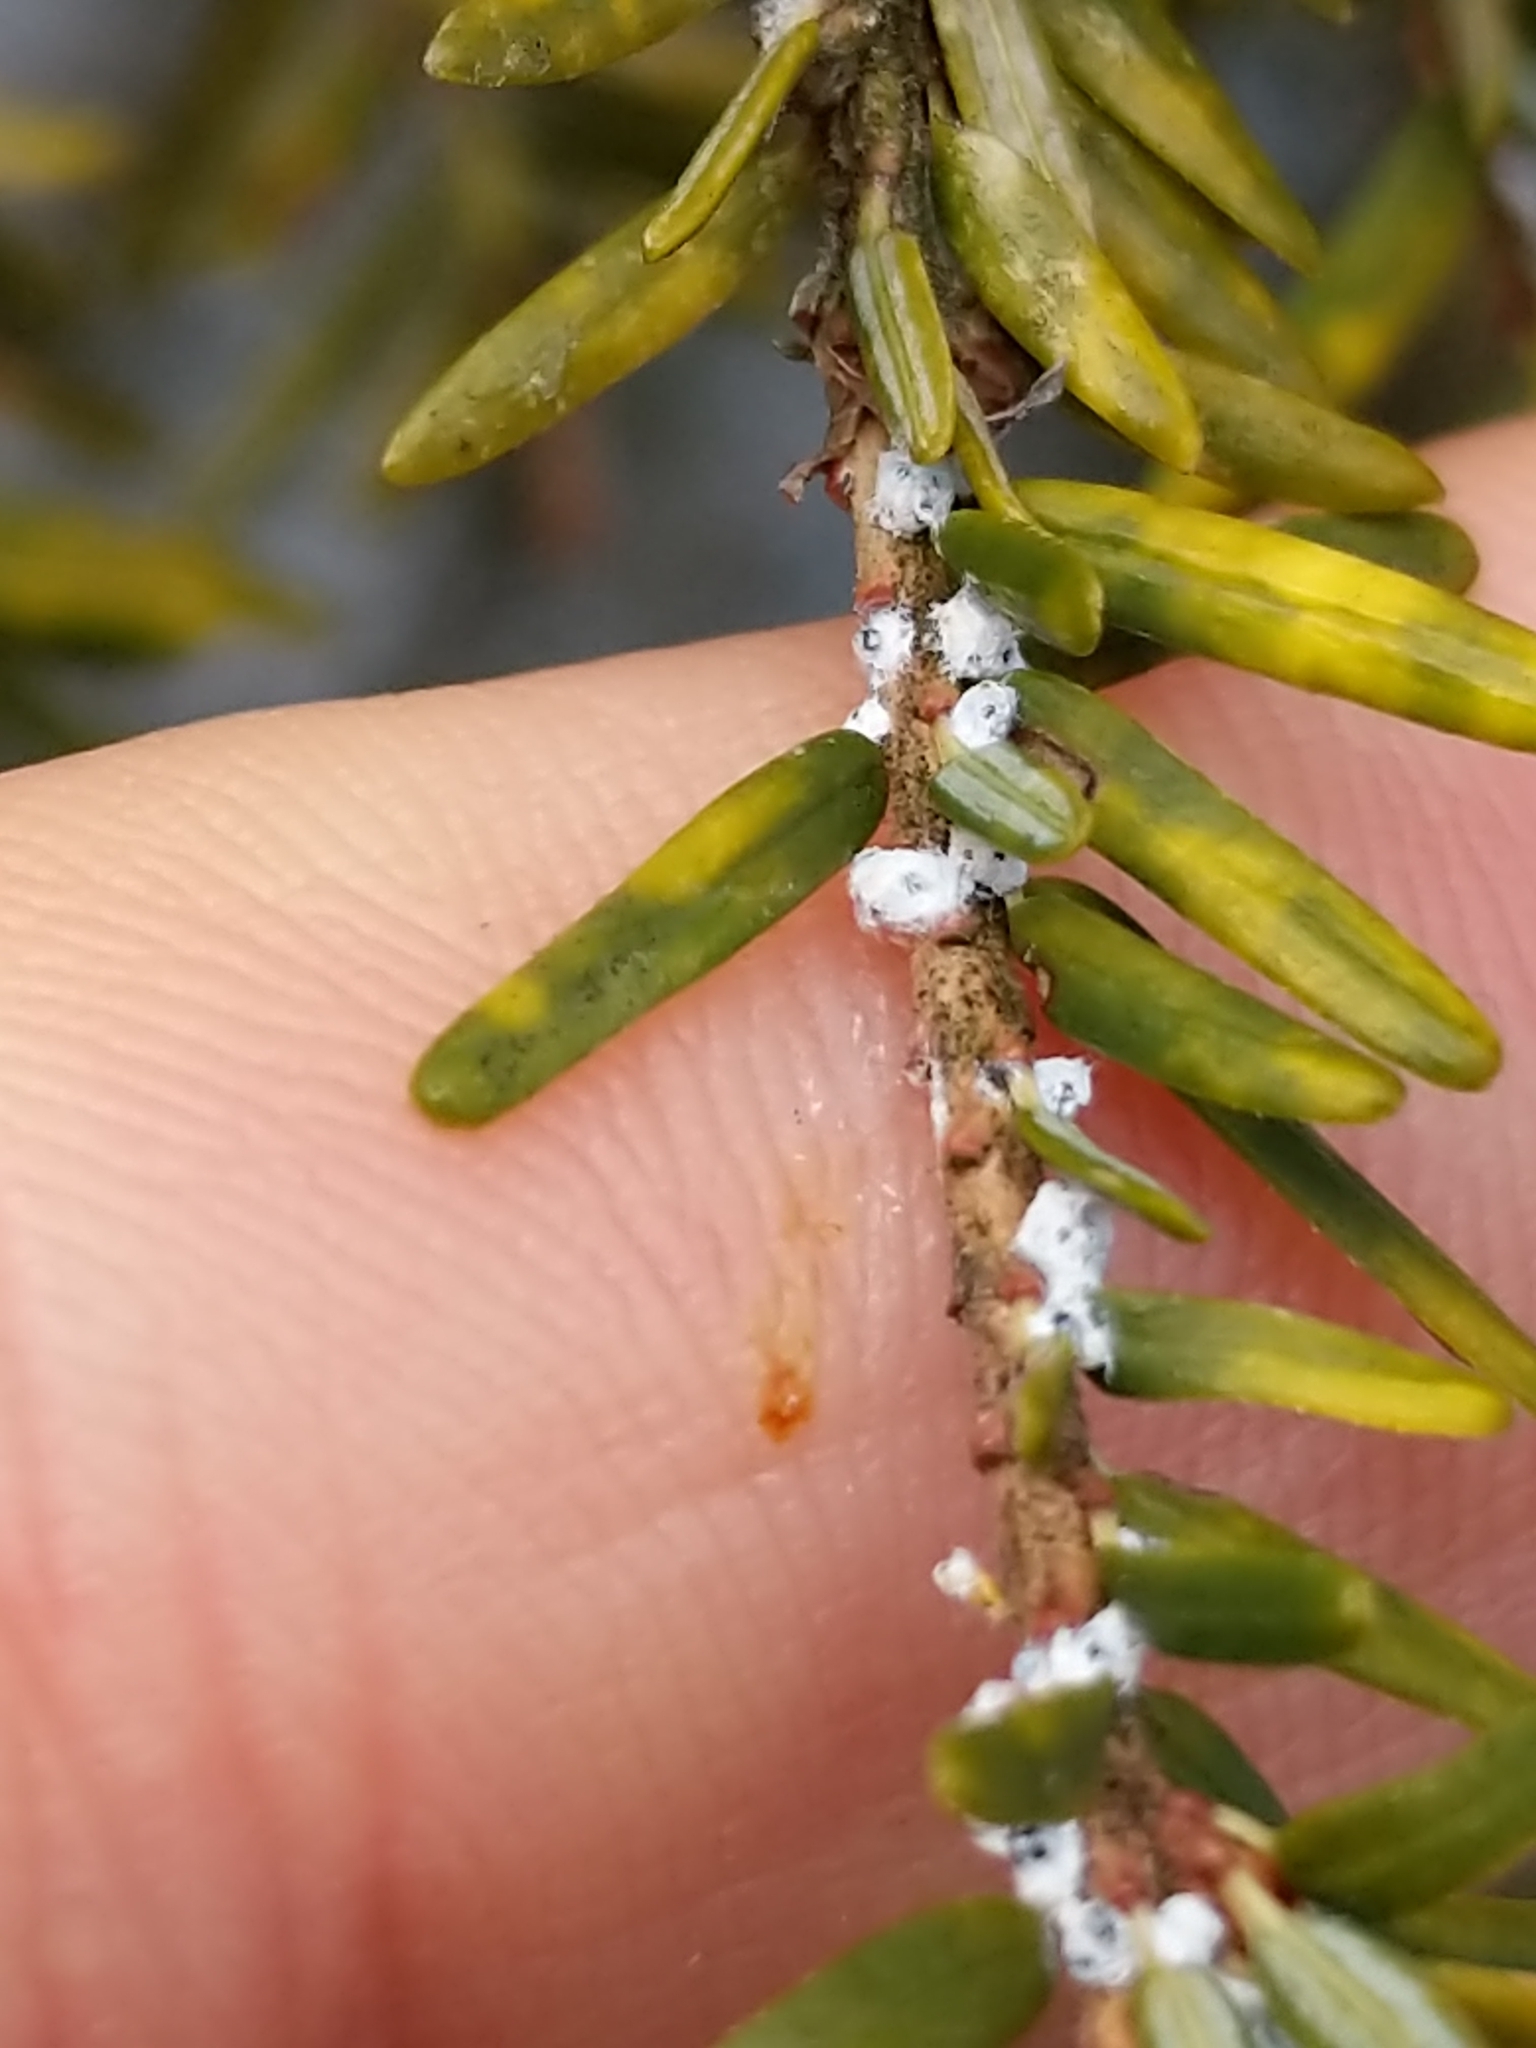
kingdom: Animalia
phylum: Arthropoda
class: Insecta
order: Hemiptera
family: Adelgidae
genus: Adelges
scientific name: Adelges tsugae
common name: Hemlock woolly adelgid
